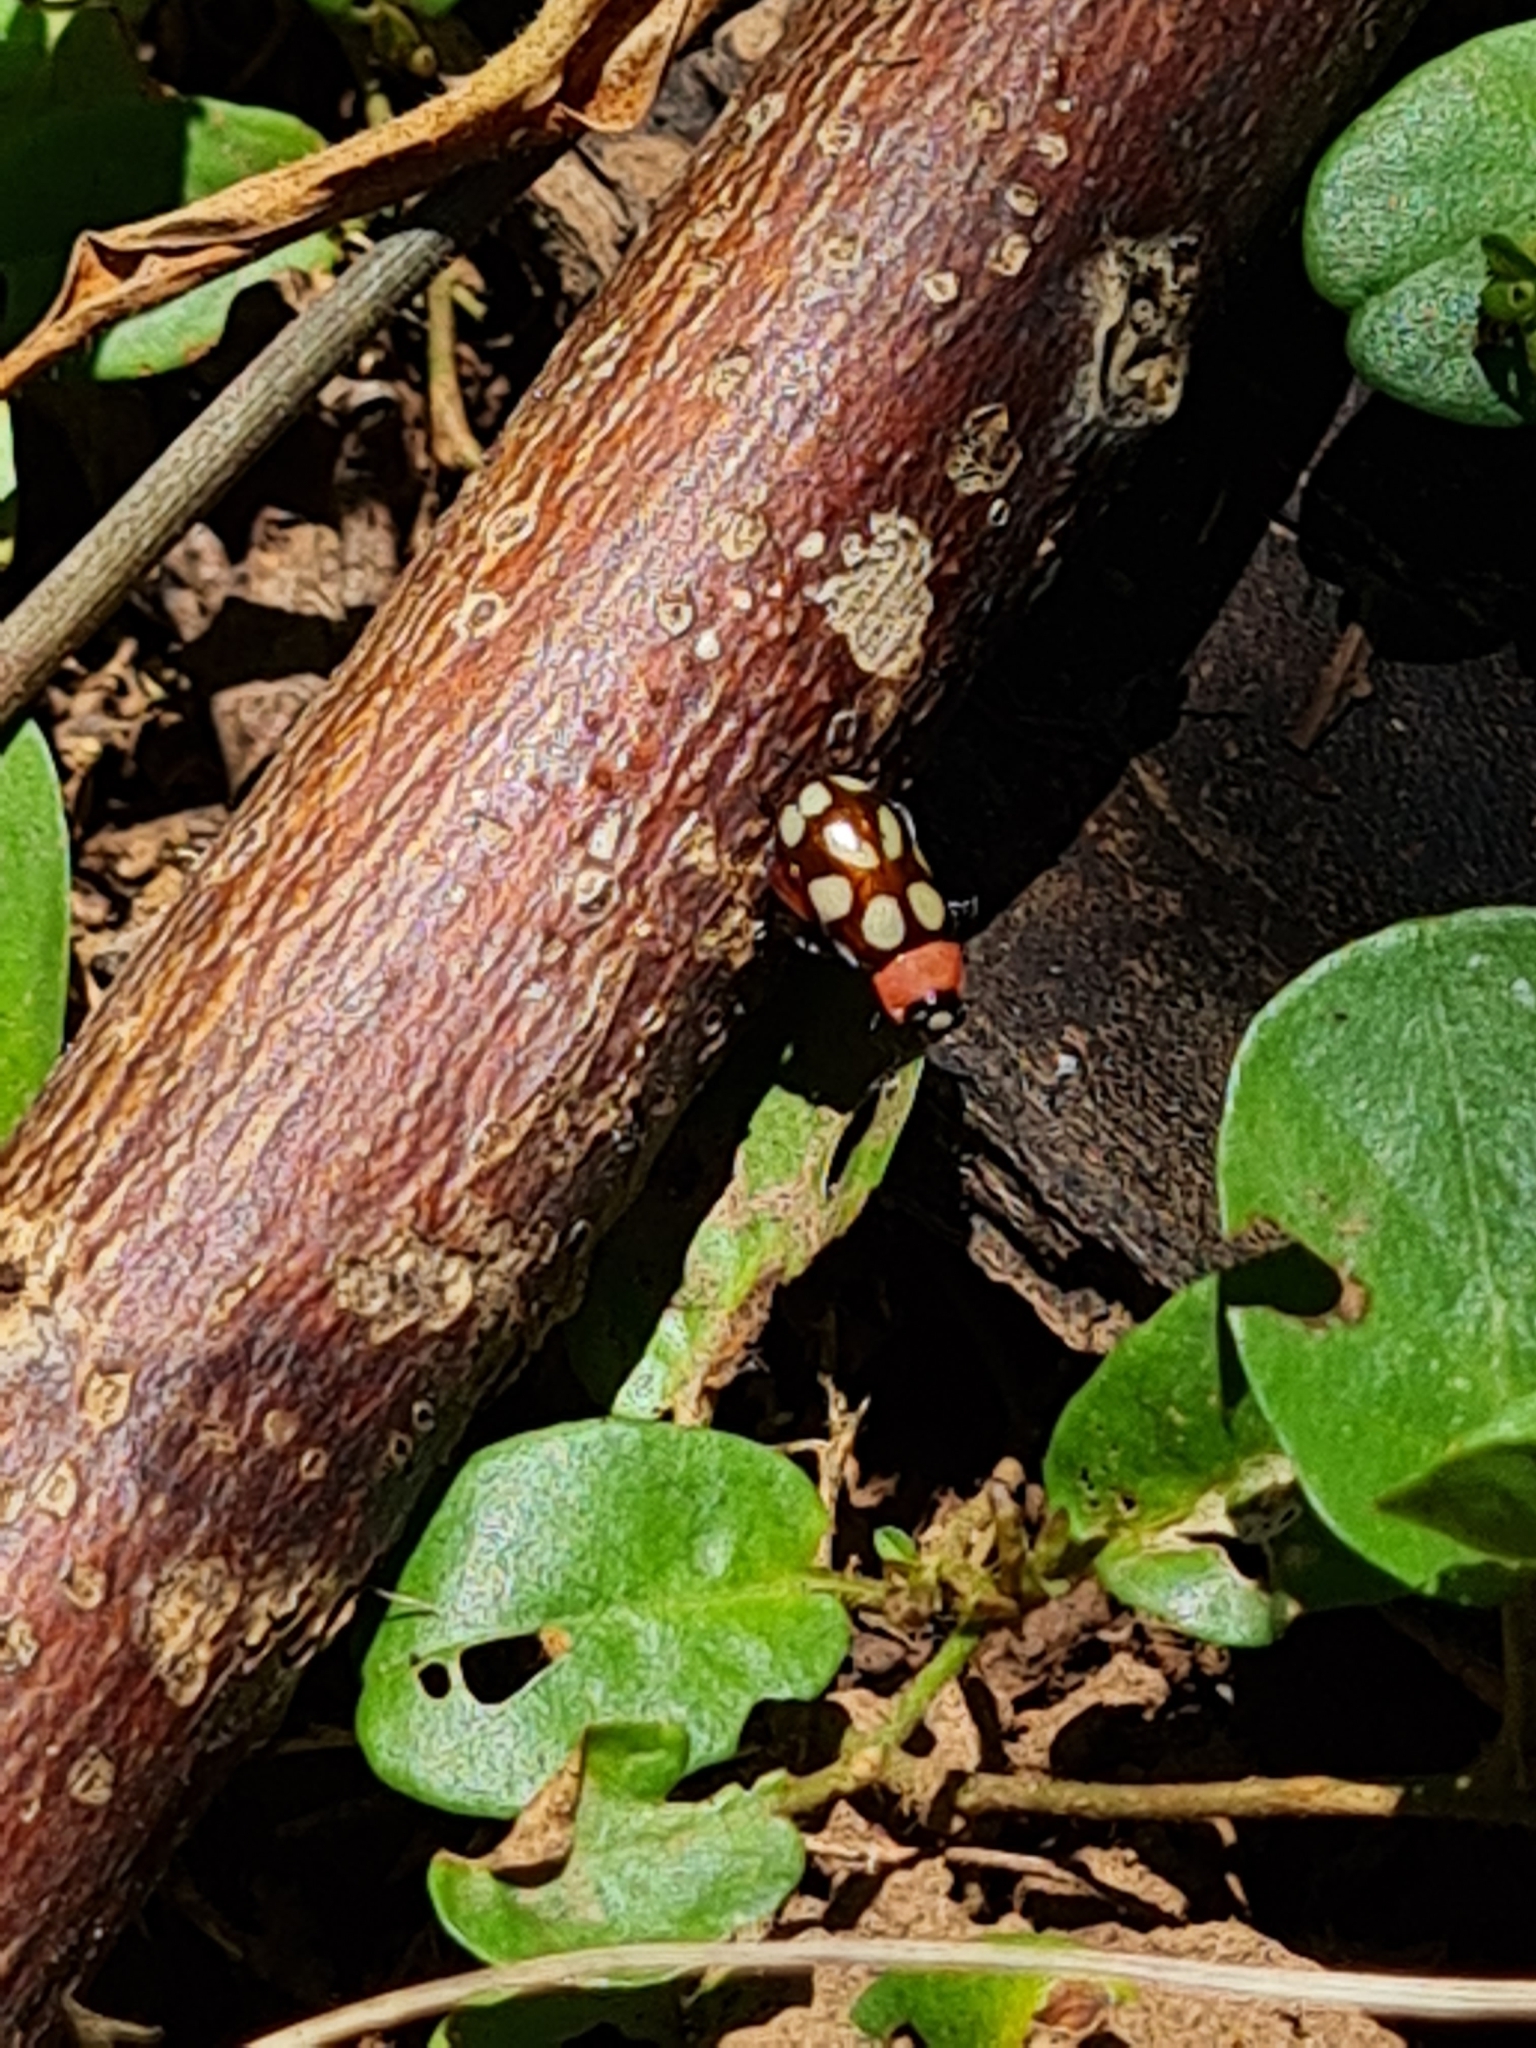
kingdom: Animalia
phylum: Arthropoda
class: Insecta
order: Coleoptera
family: Chrysomelidae
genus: Omophoita
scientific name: Omophoita
